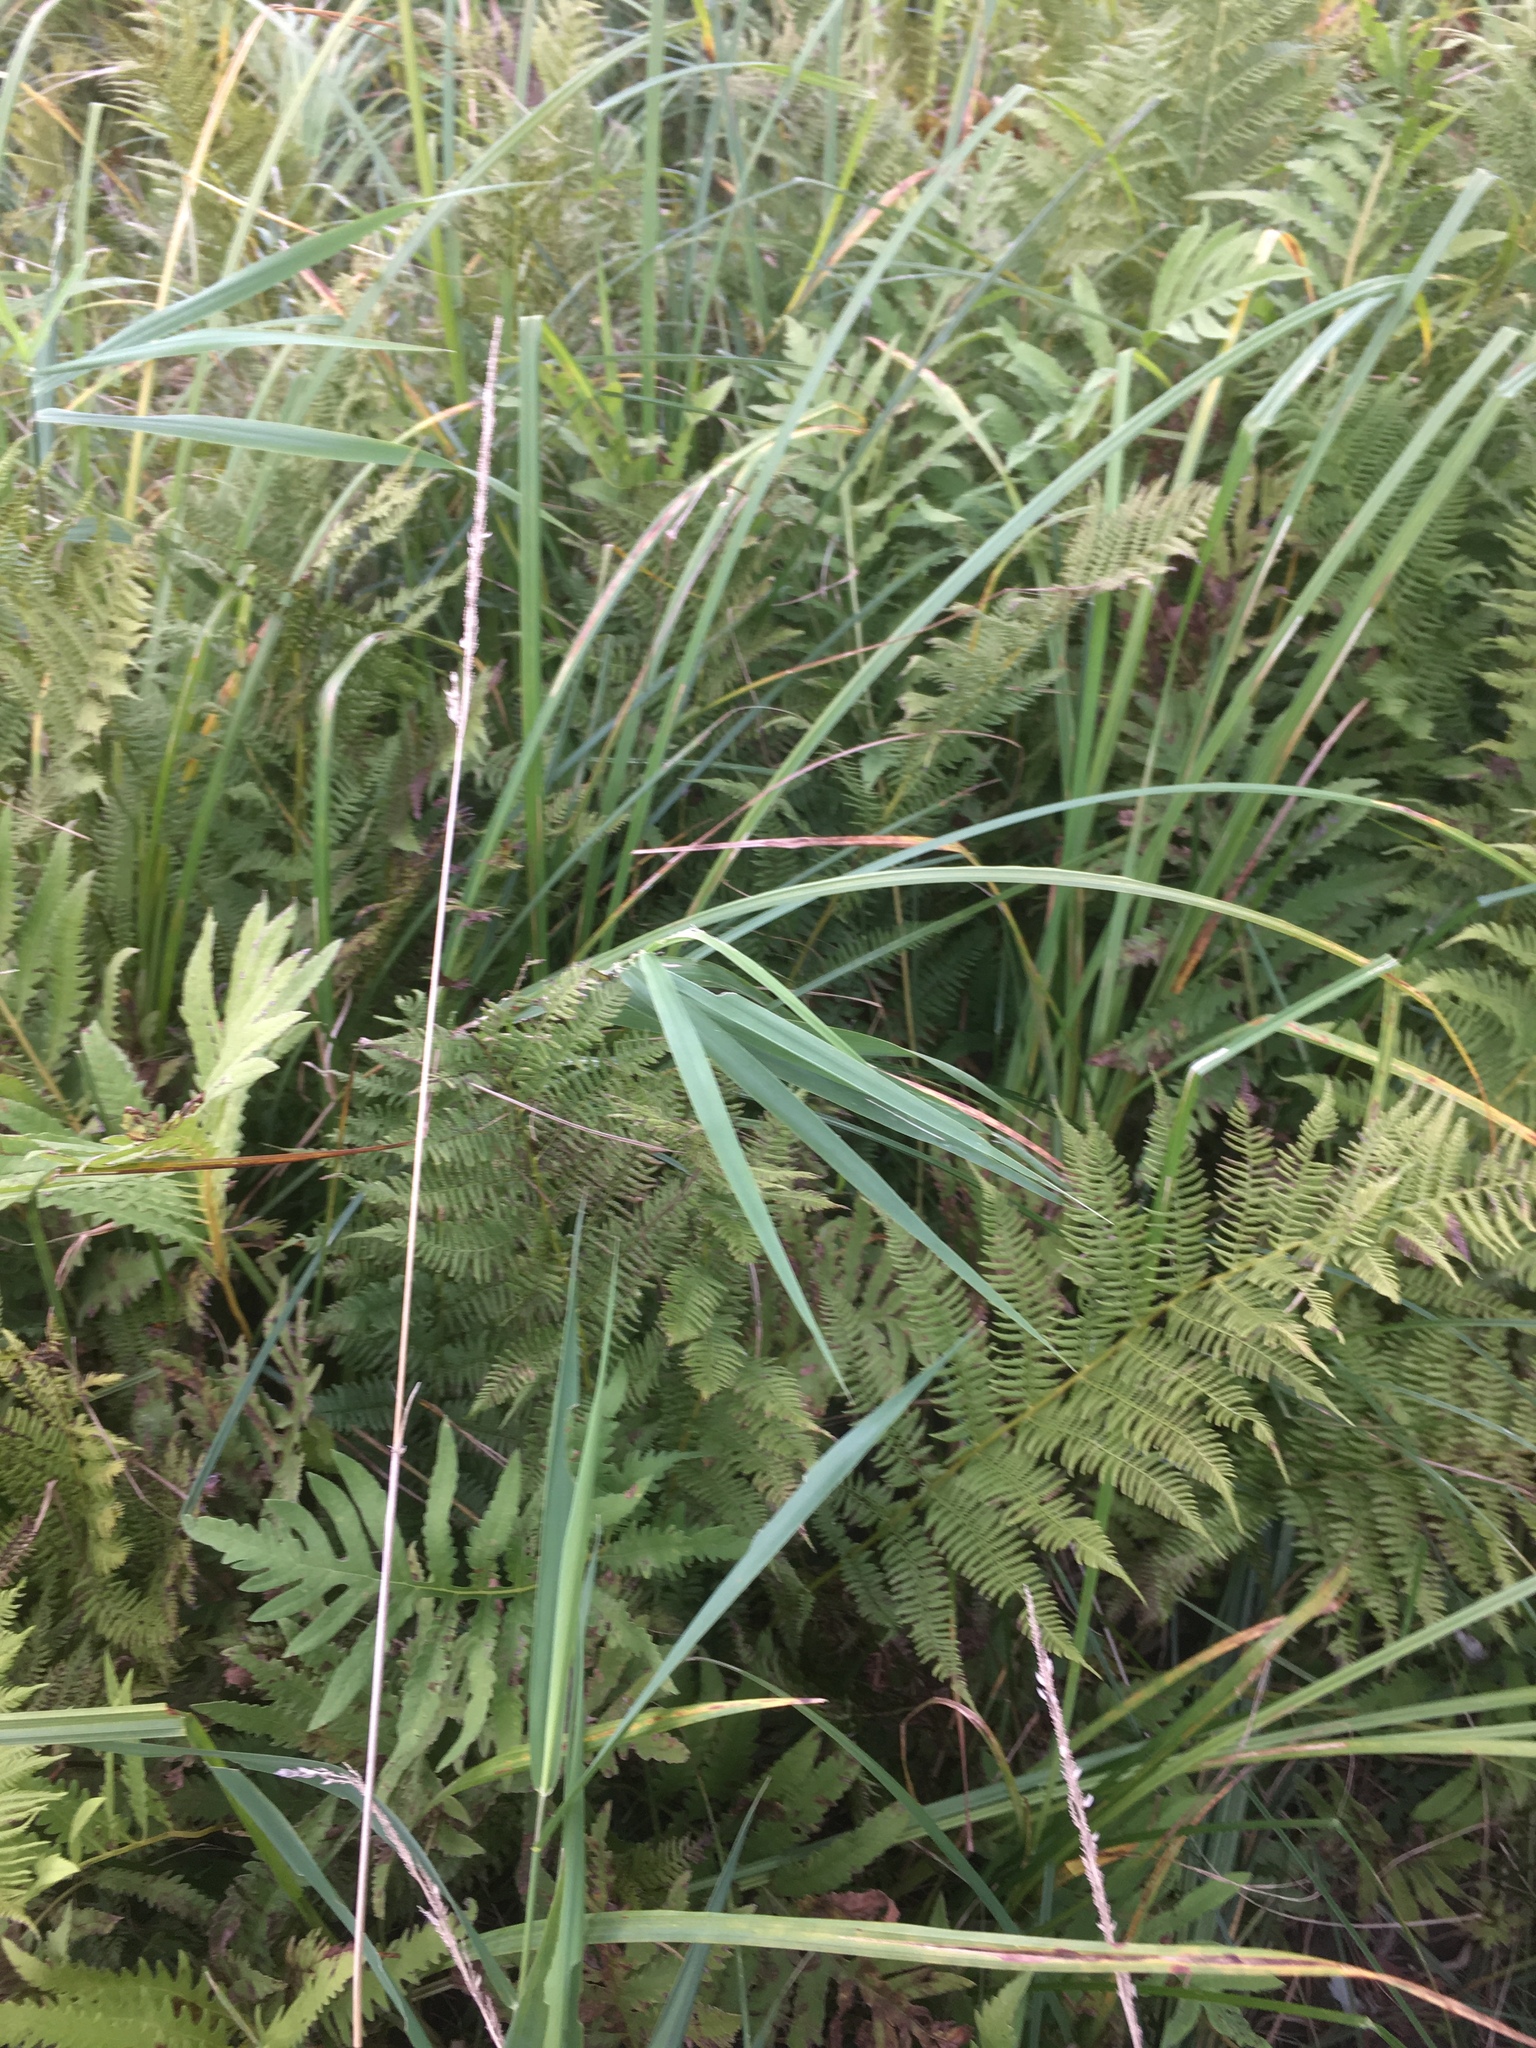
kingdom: Plantae
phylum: Tracheophyta
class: Polypodiopsida
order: Polypodiales
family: Athyriaceae
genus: Athyrium
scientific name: Athyrium angustum
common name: Northern lady fern
